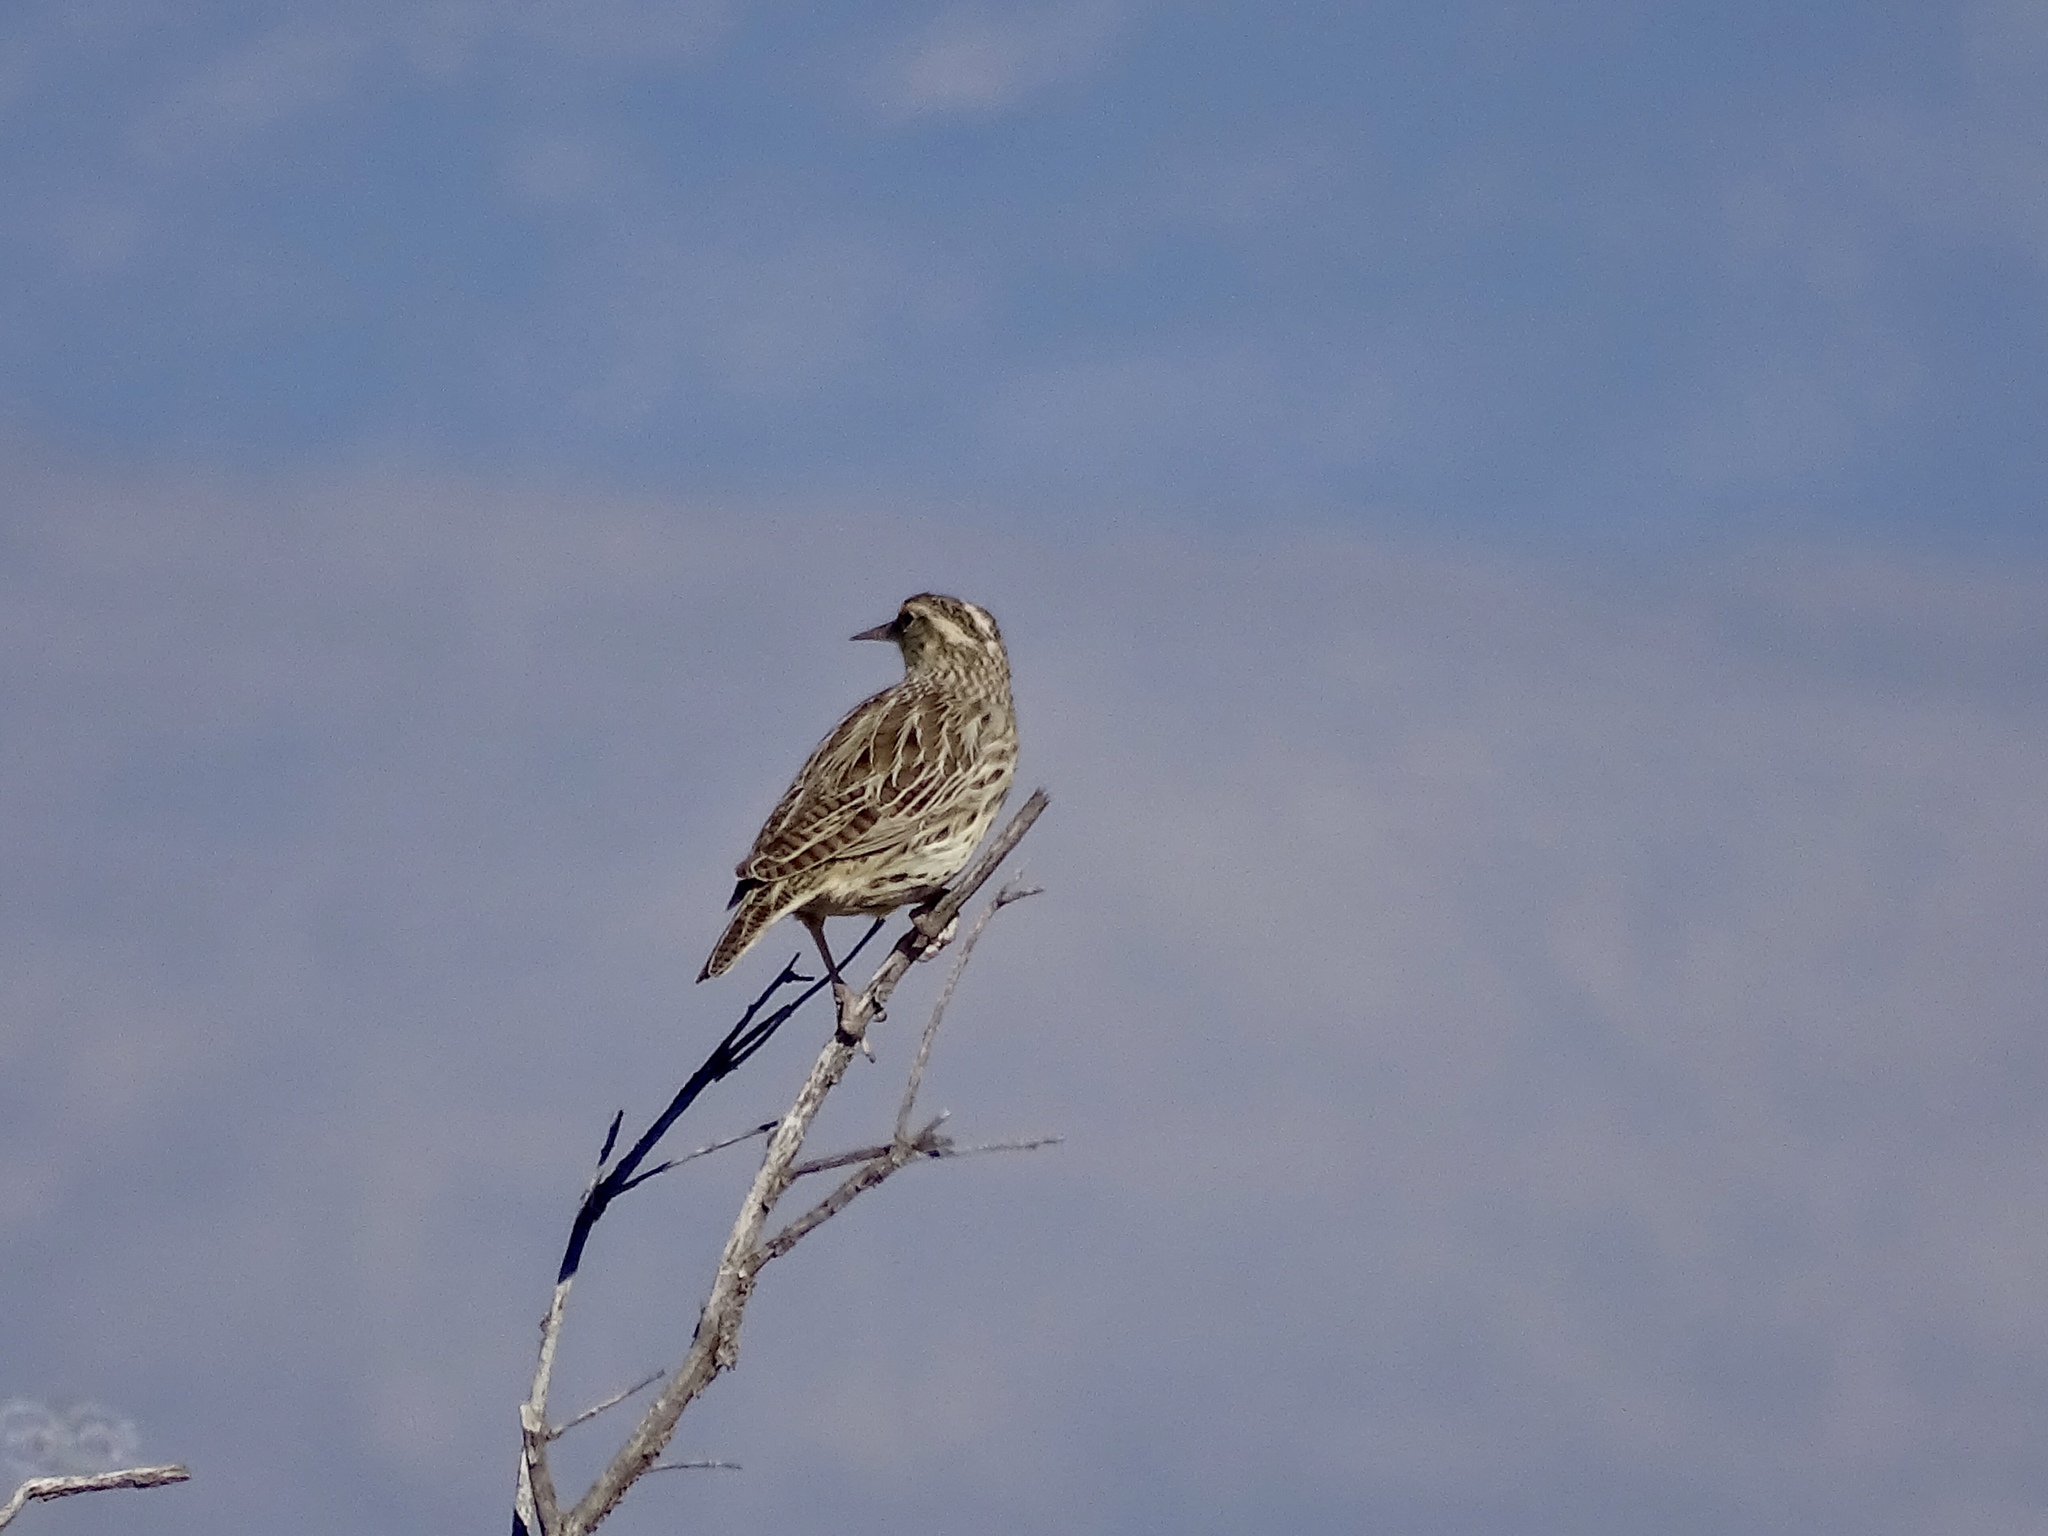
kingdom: Animalia
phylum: Chordata
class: Aves
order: Passeriformes
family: Icteridae
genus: Sturnella
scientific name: Sturnella neglecta
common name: Western meadowlark
